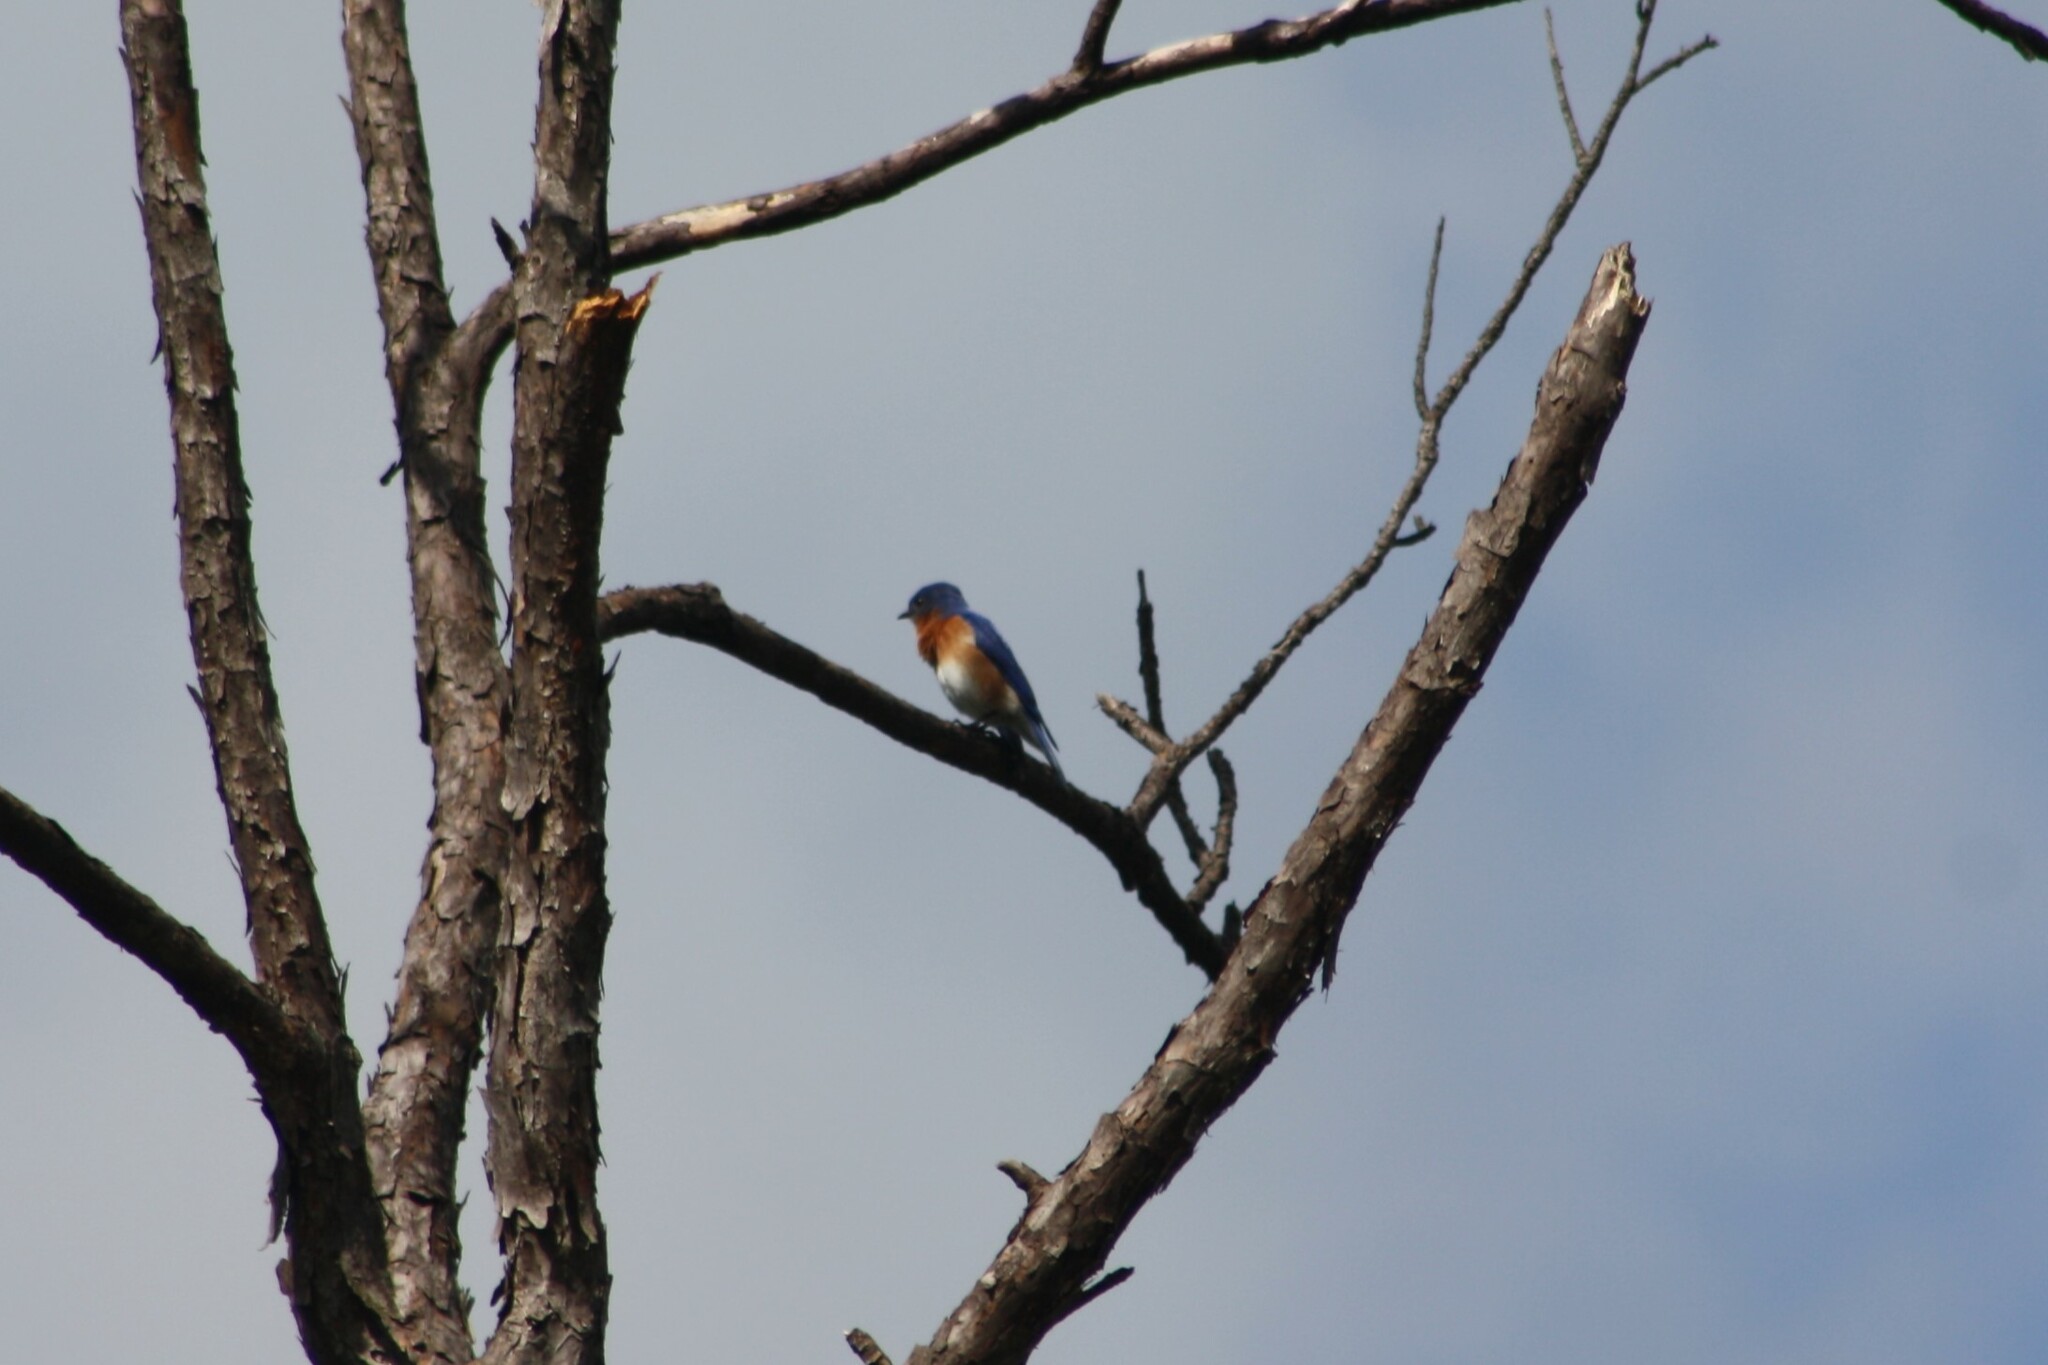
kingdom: Animalia
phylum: Chordata
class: Aves
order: Passeriformes
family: Turdidae
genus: Sialia
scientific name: Sialia sialis
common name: Eastern bluebird
